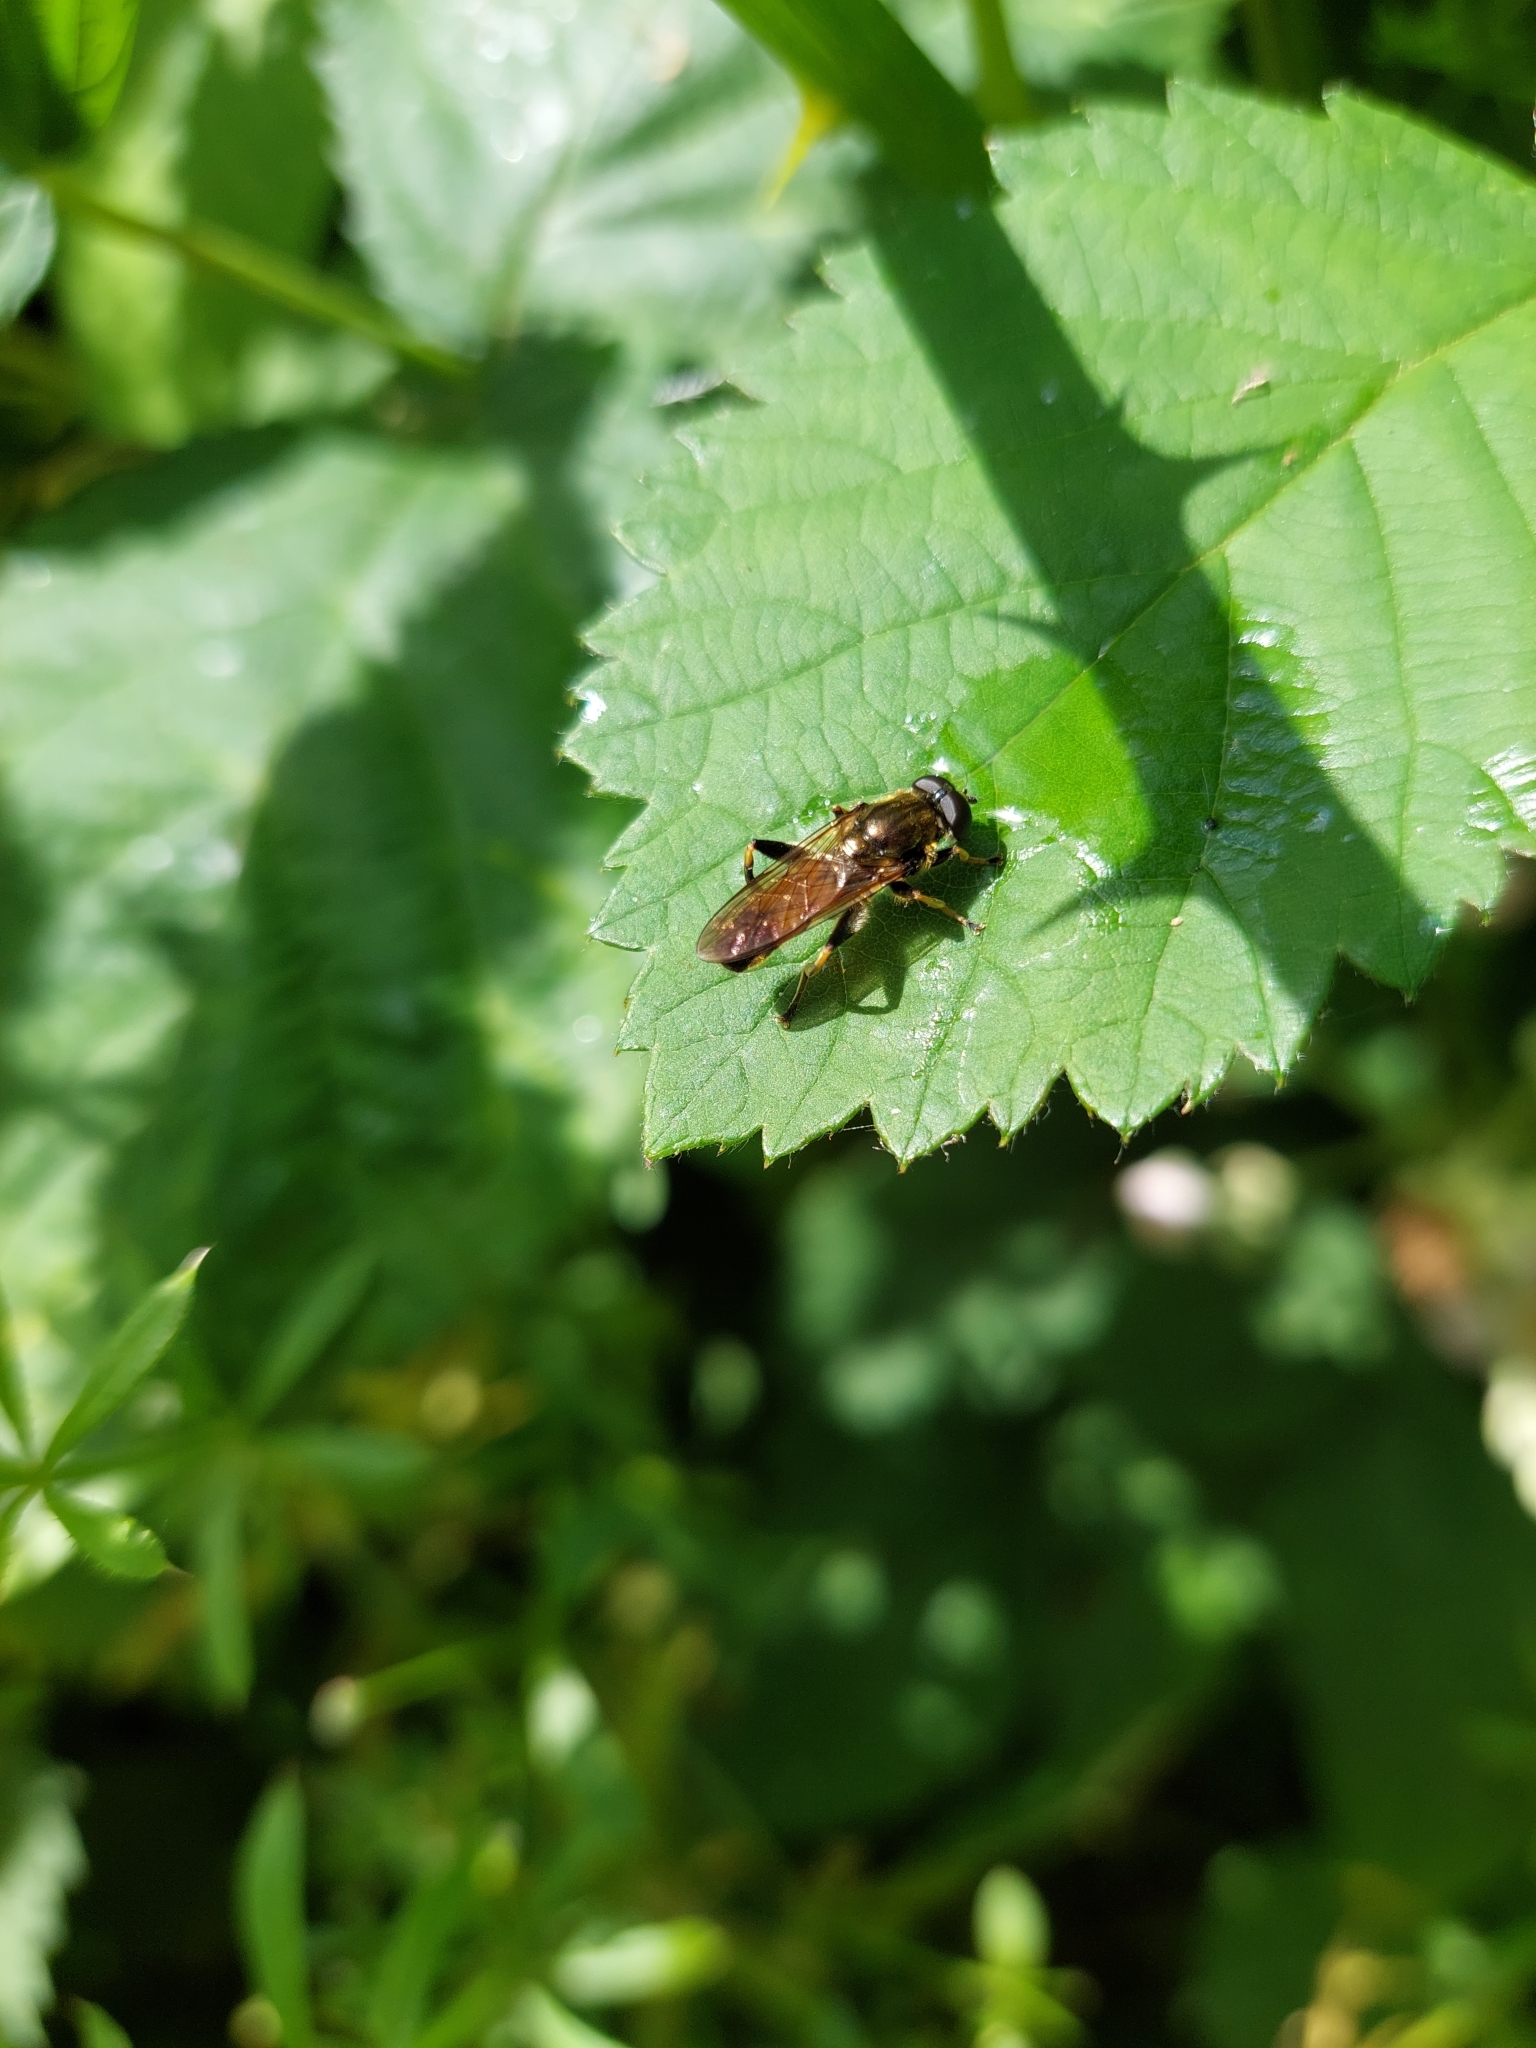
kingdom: Animalia
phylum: Arthropoda
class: Insecta
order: Diptera
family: Syrphidae
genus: Xylota
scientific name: Xylota segnis
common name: Brown-toed forest fly
